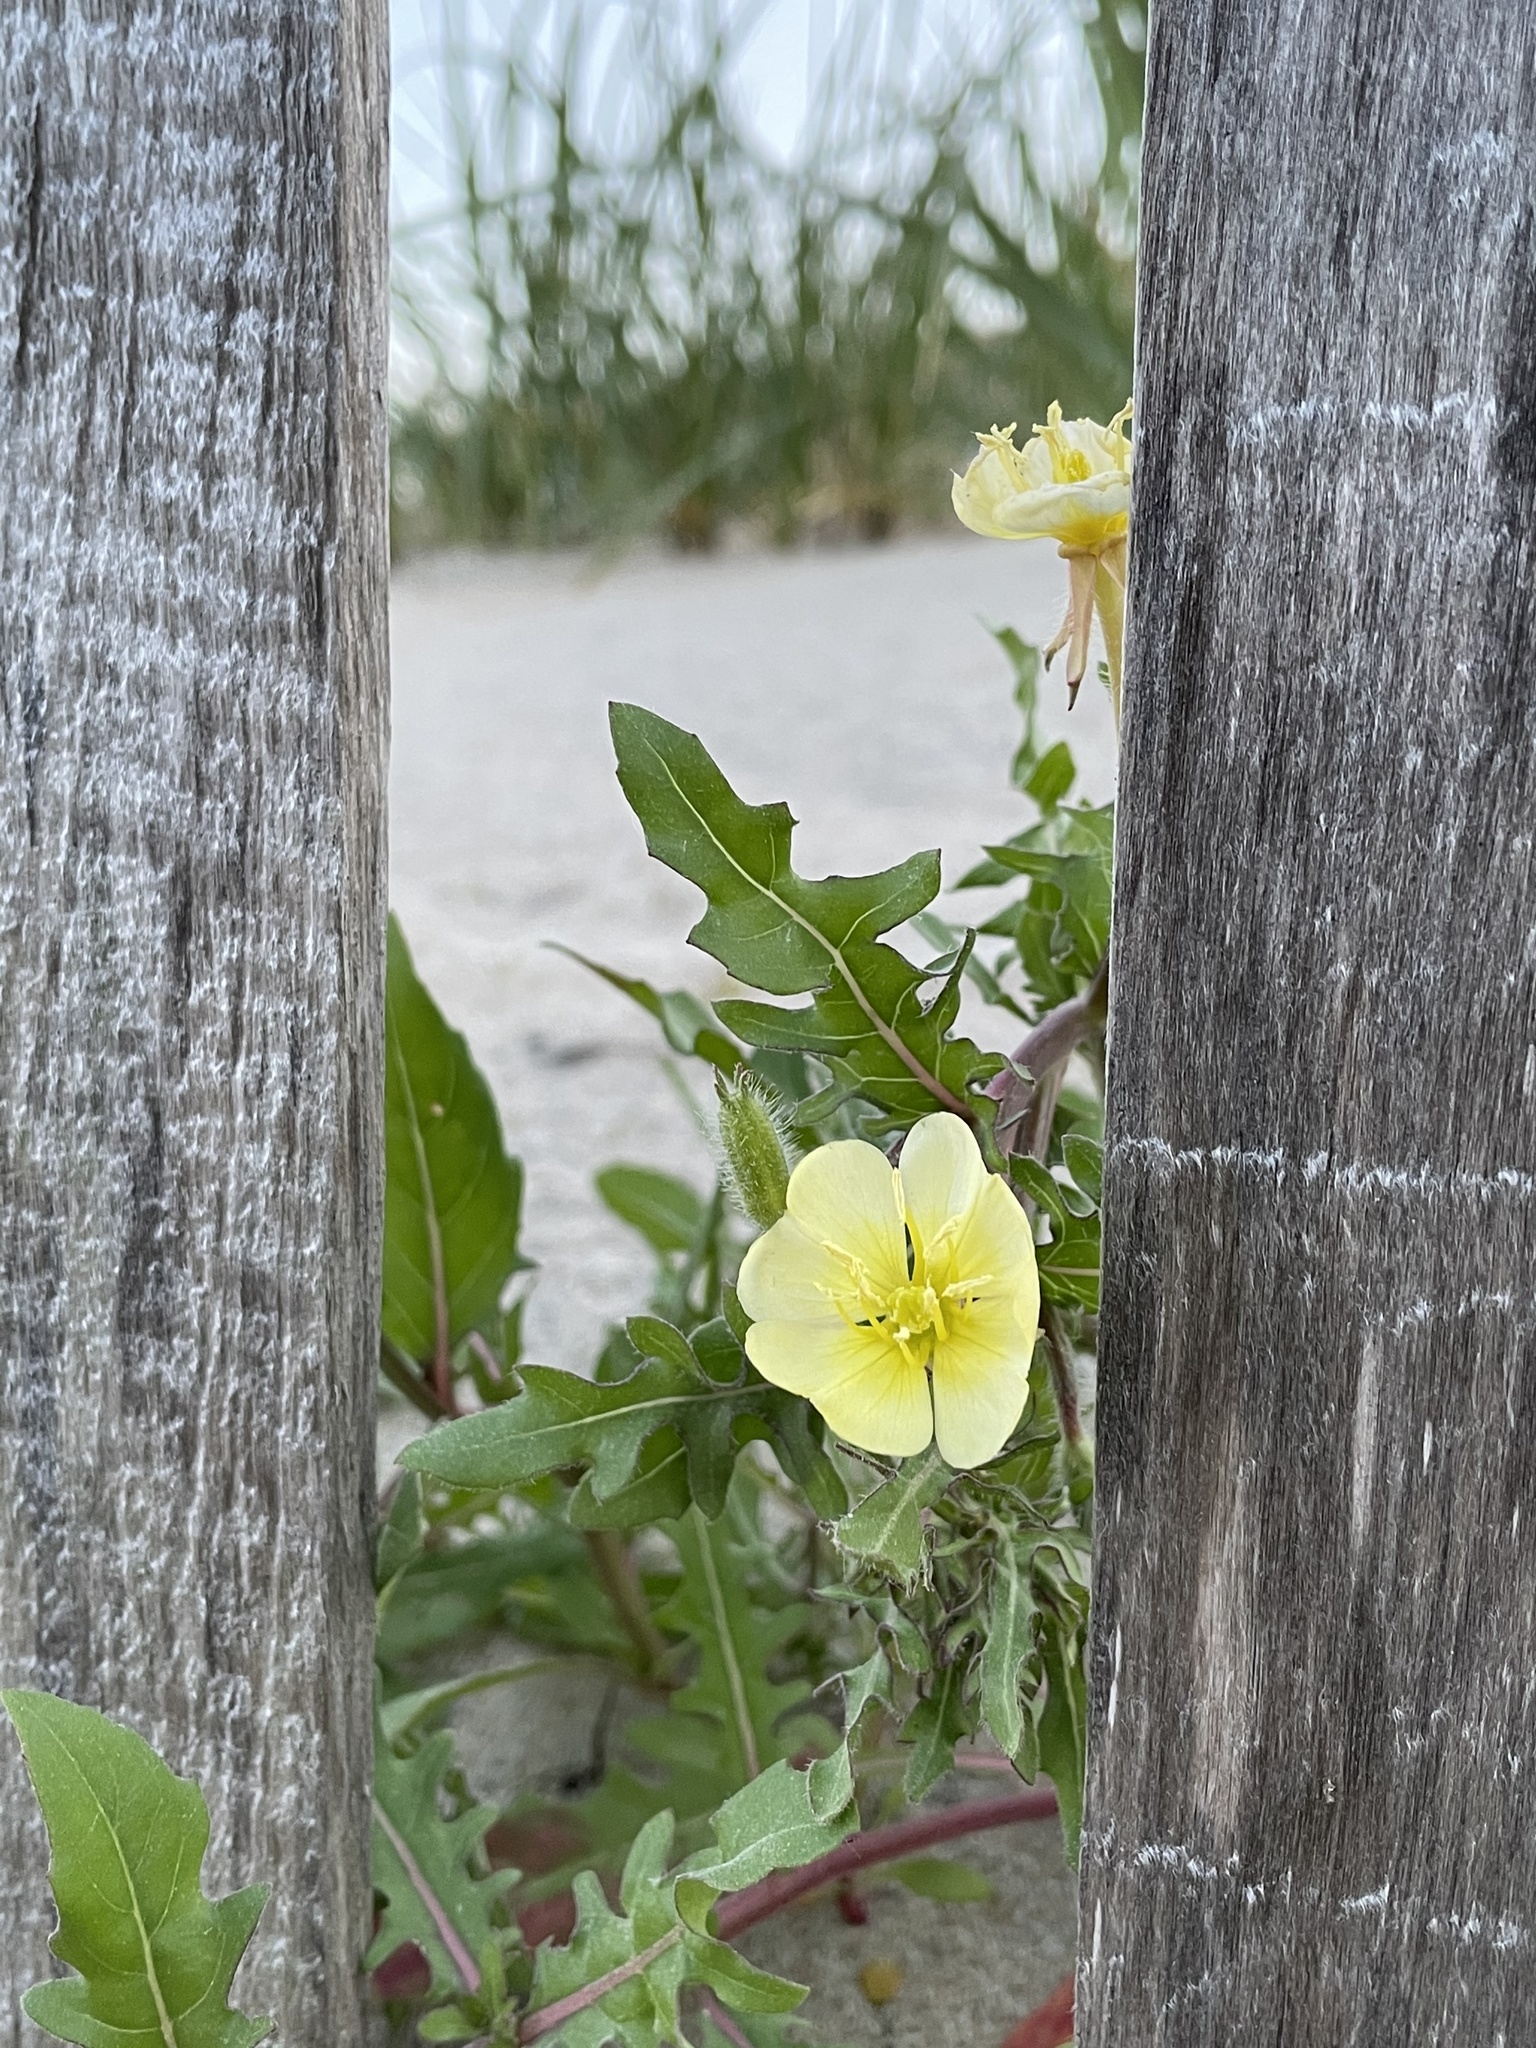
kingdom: Plantae
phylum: Tracheophyta
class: Magnoliopsida
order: Myrtales
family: Onagraceae
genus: Oenothera
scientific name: Oenothera laciniata
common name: Cut-leaved evening-primrose
